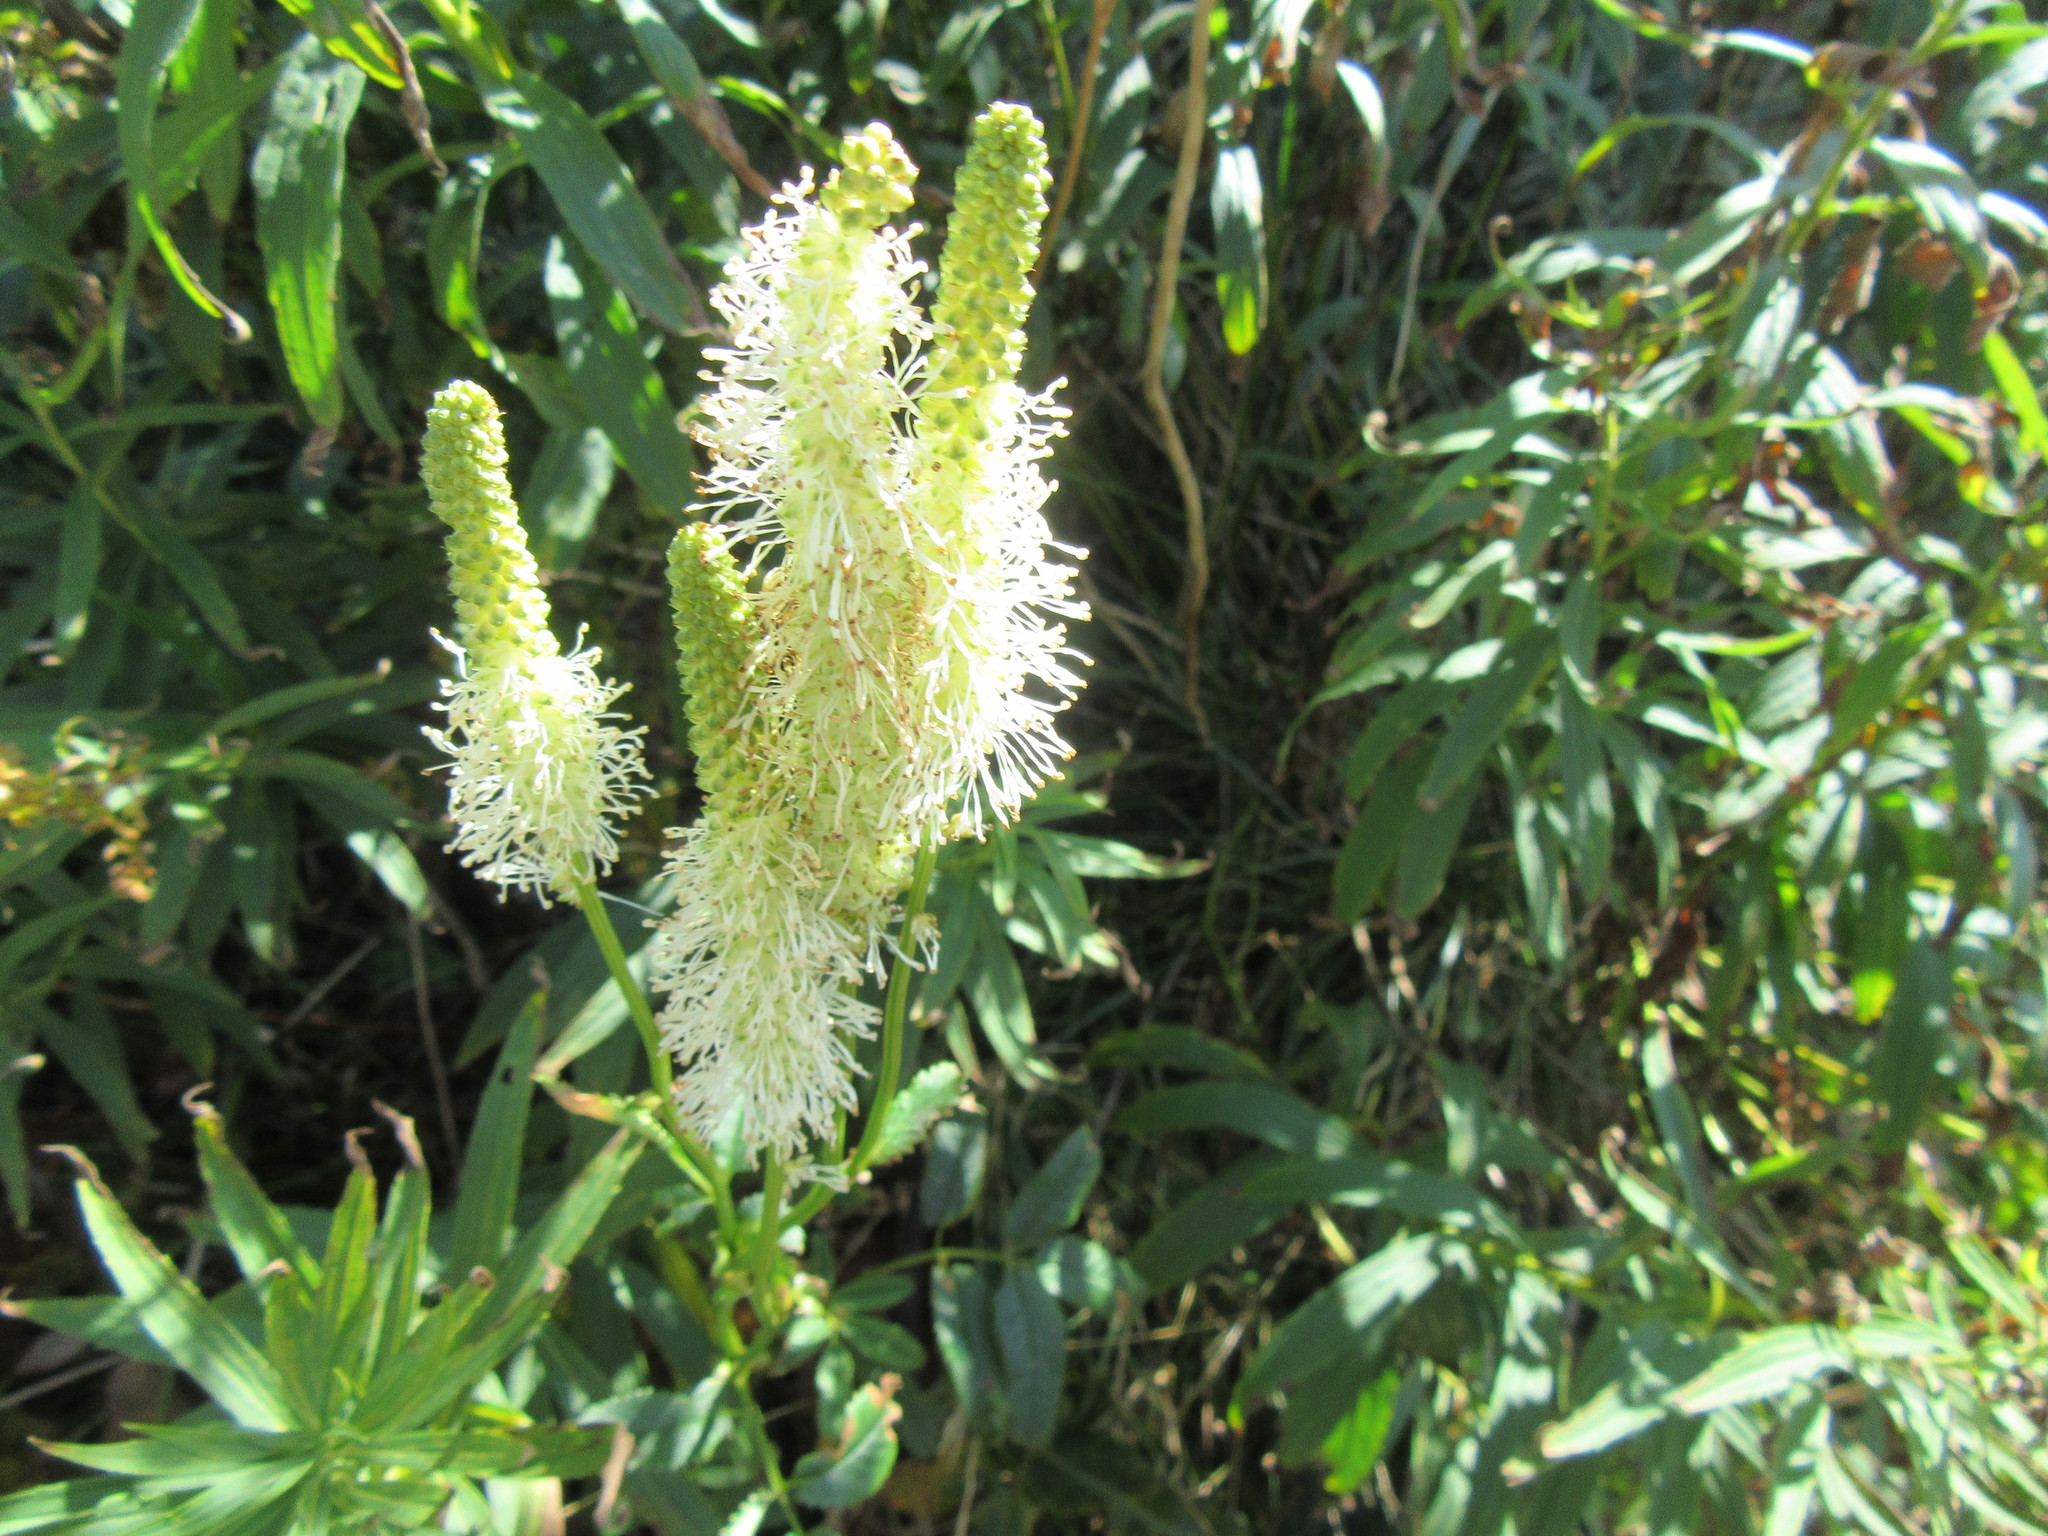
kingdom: Plantae
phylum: Tracheophyta
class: Magnoliopsida
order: Rosales
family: Rosaceae
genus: Sanguisorba
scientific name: Sanguisorba canadensis
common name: White burnet
